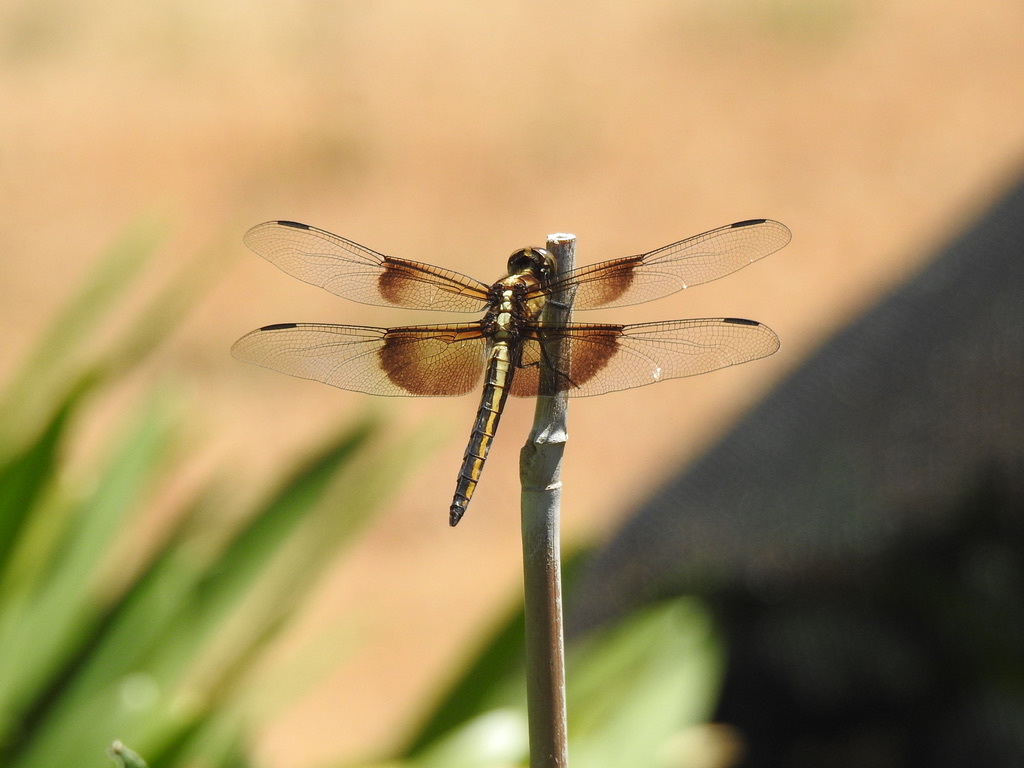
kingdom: Animalia
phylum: Arthropoda
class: Insecta
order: Odonata
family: Libellulidae
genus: Libellula
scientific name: Libellula luctuosa
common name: Widow skimmer
